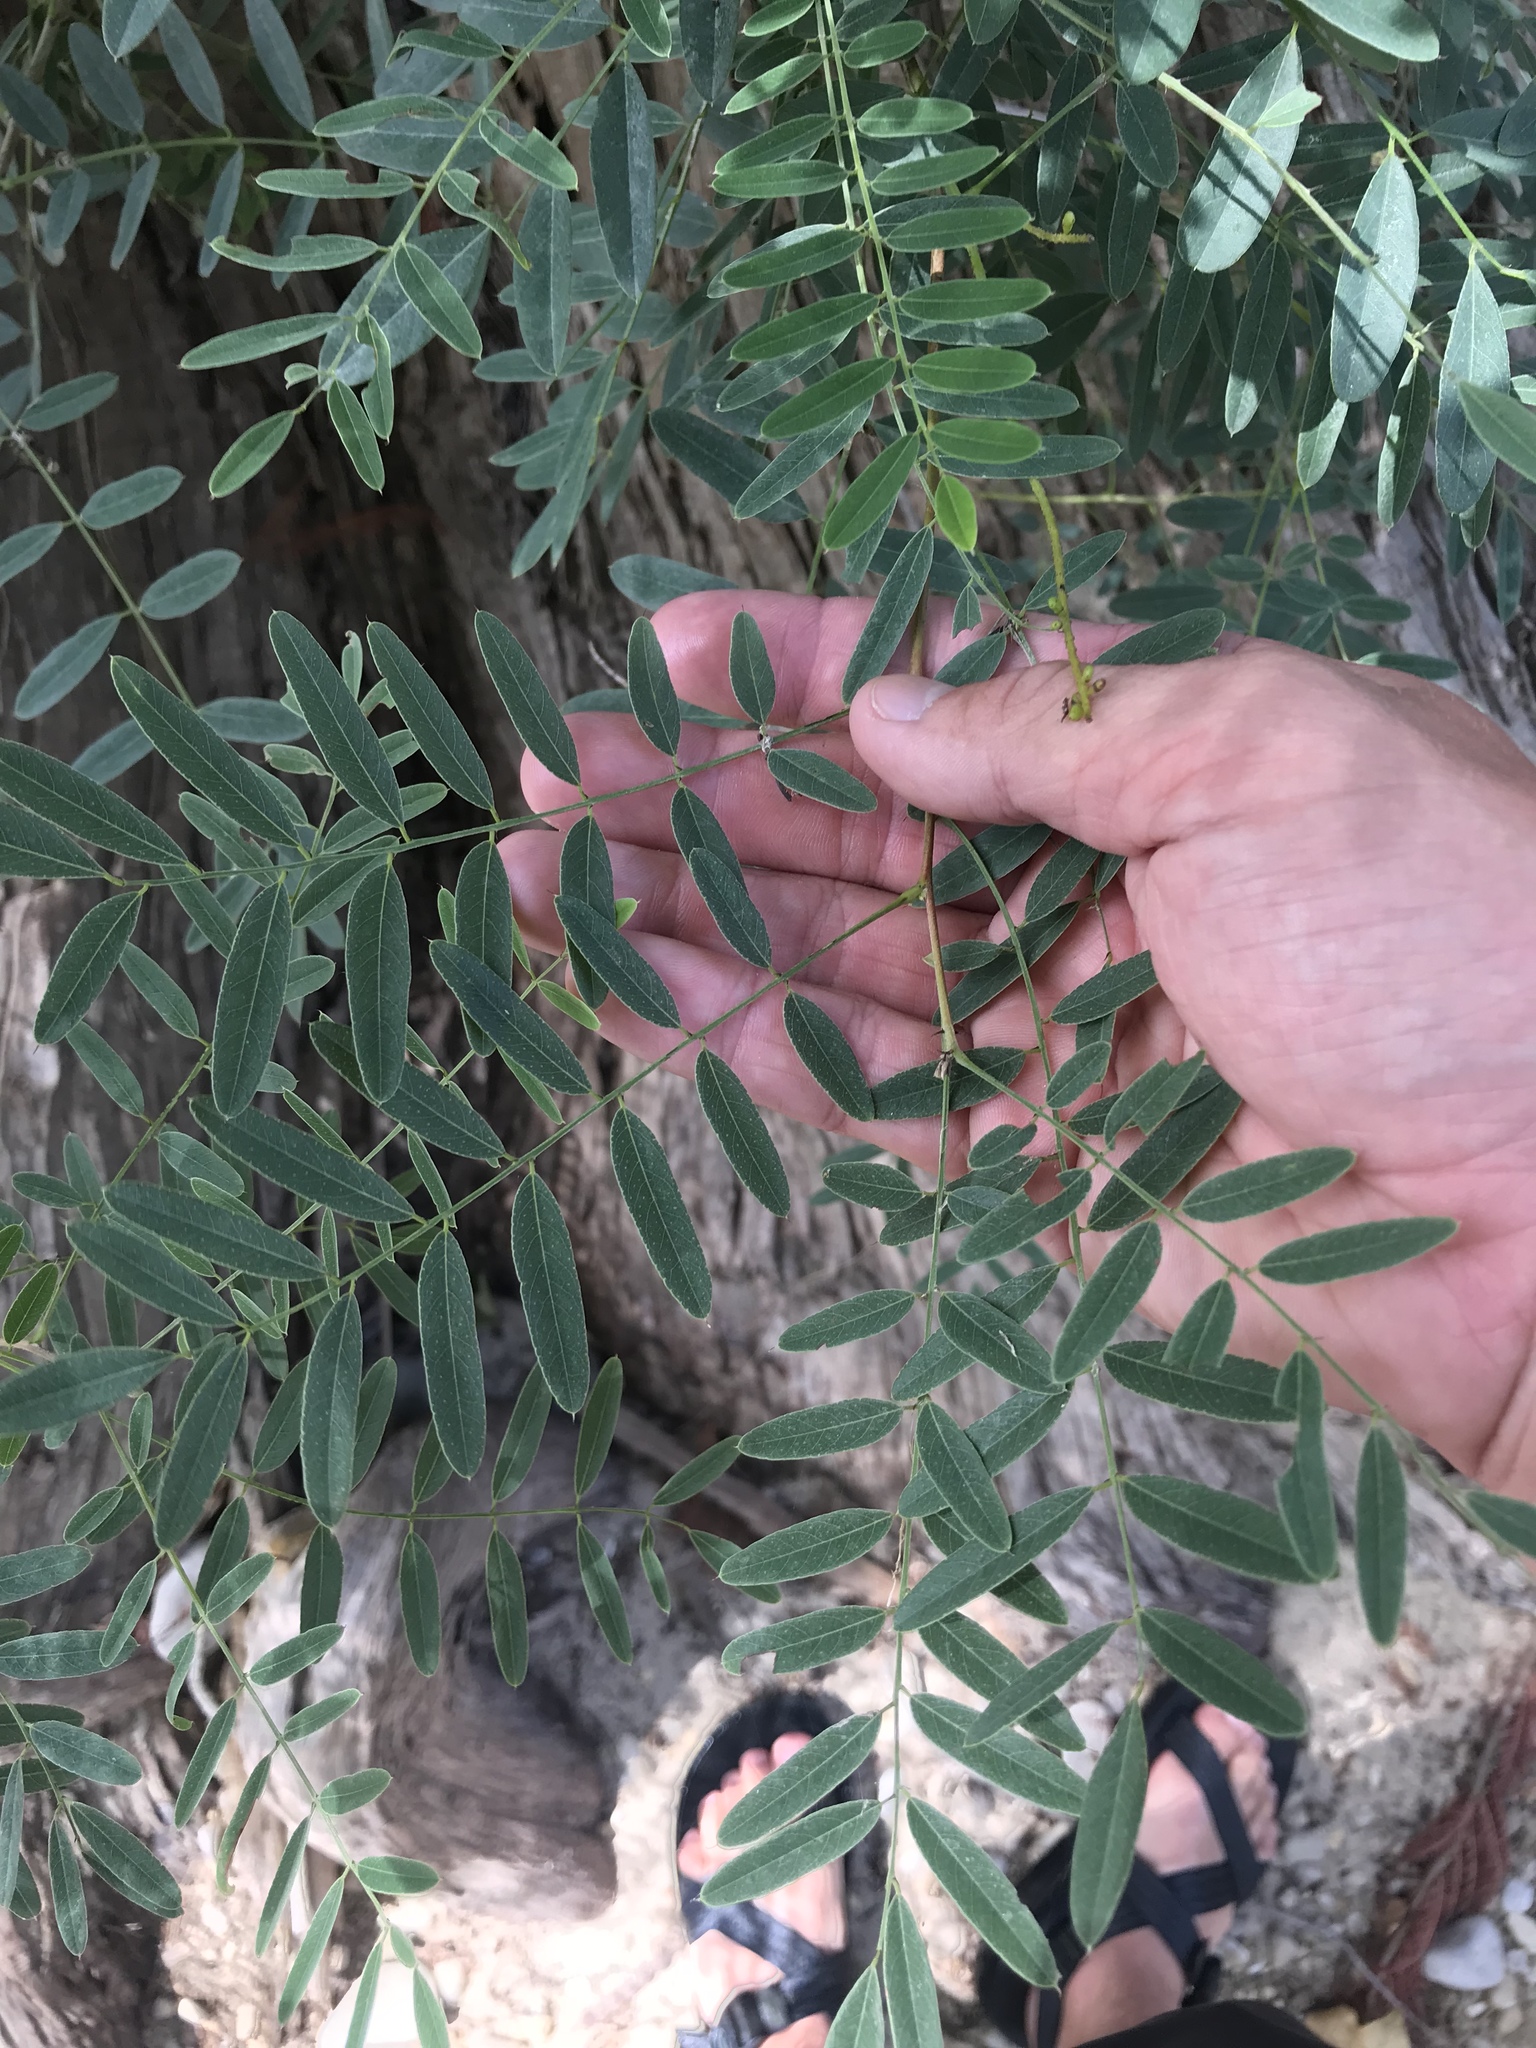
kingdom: Plantae
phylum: Tracheophyta
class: Magnoliopsida
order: Fabales
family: Fabaceae
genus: Amorpha
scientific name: Amorpha fruticosa
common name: False indigo
